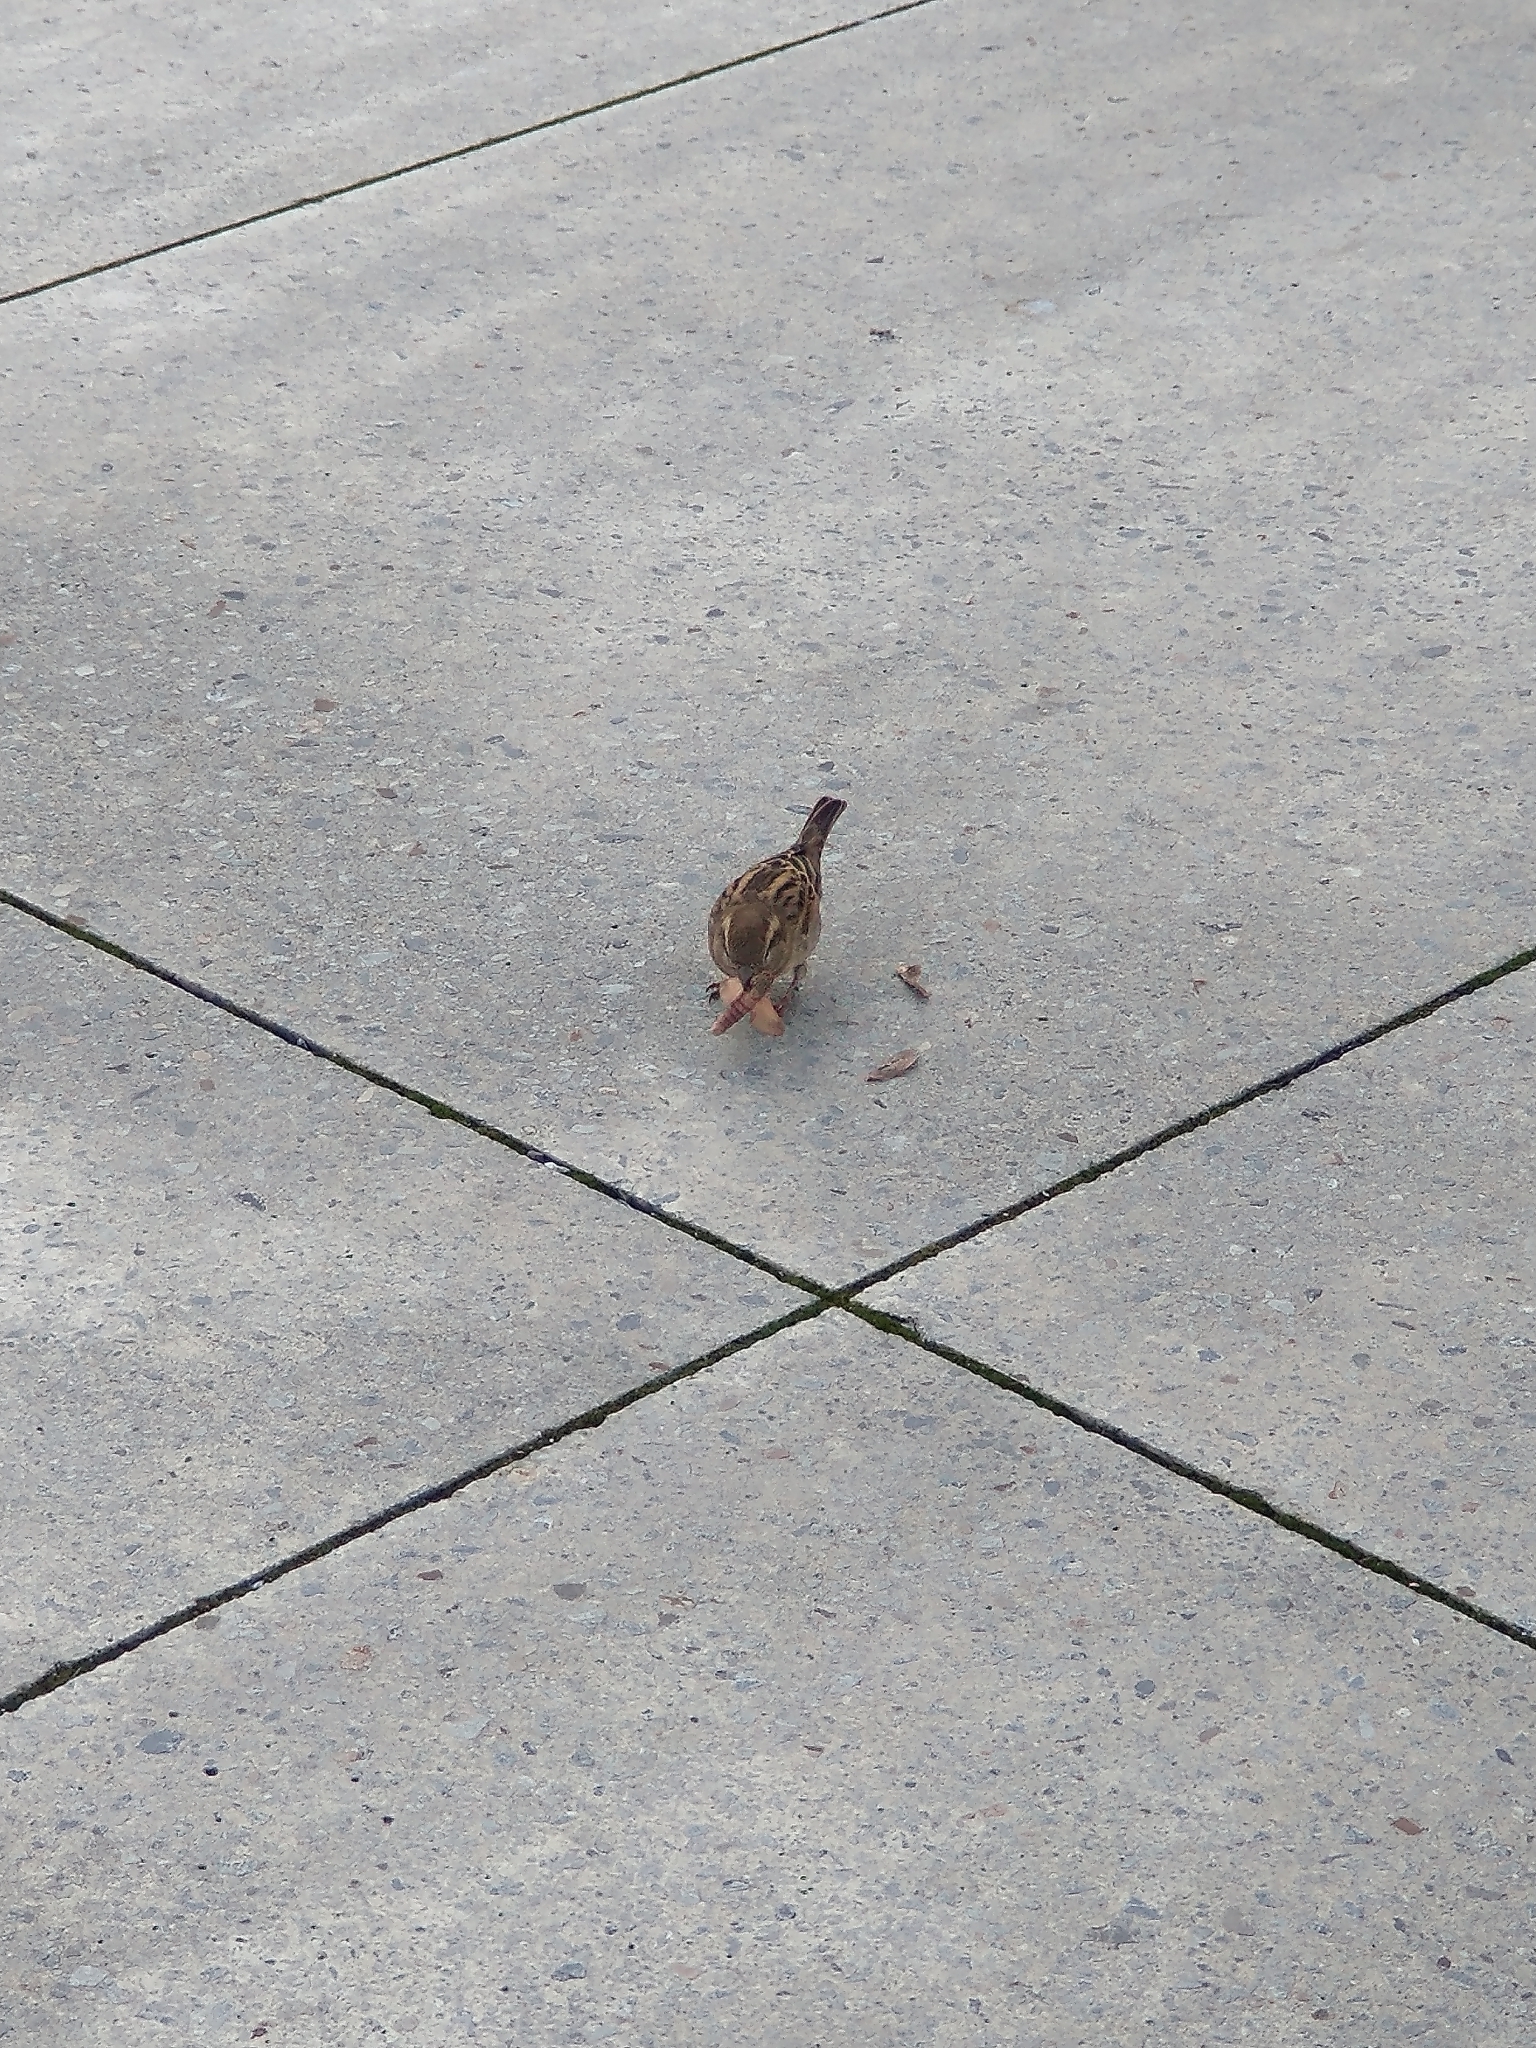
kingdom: Animalia
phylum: Chordata
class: Aves
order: Passeriformes
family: Passeridae
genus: Passer
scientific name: Passer domesticus
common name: House sparrow
